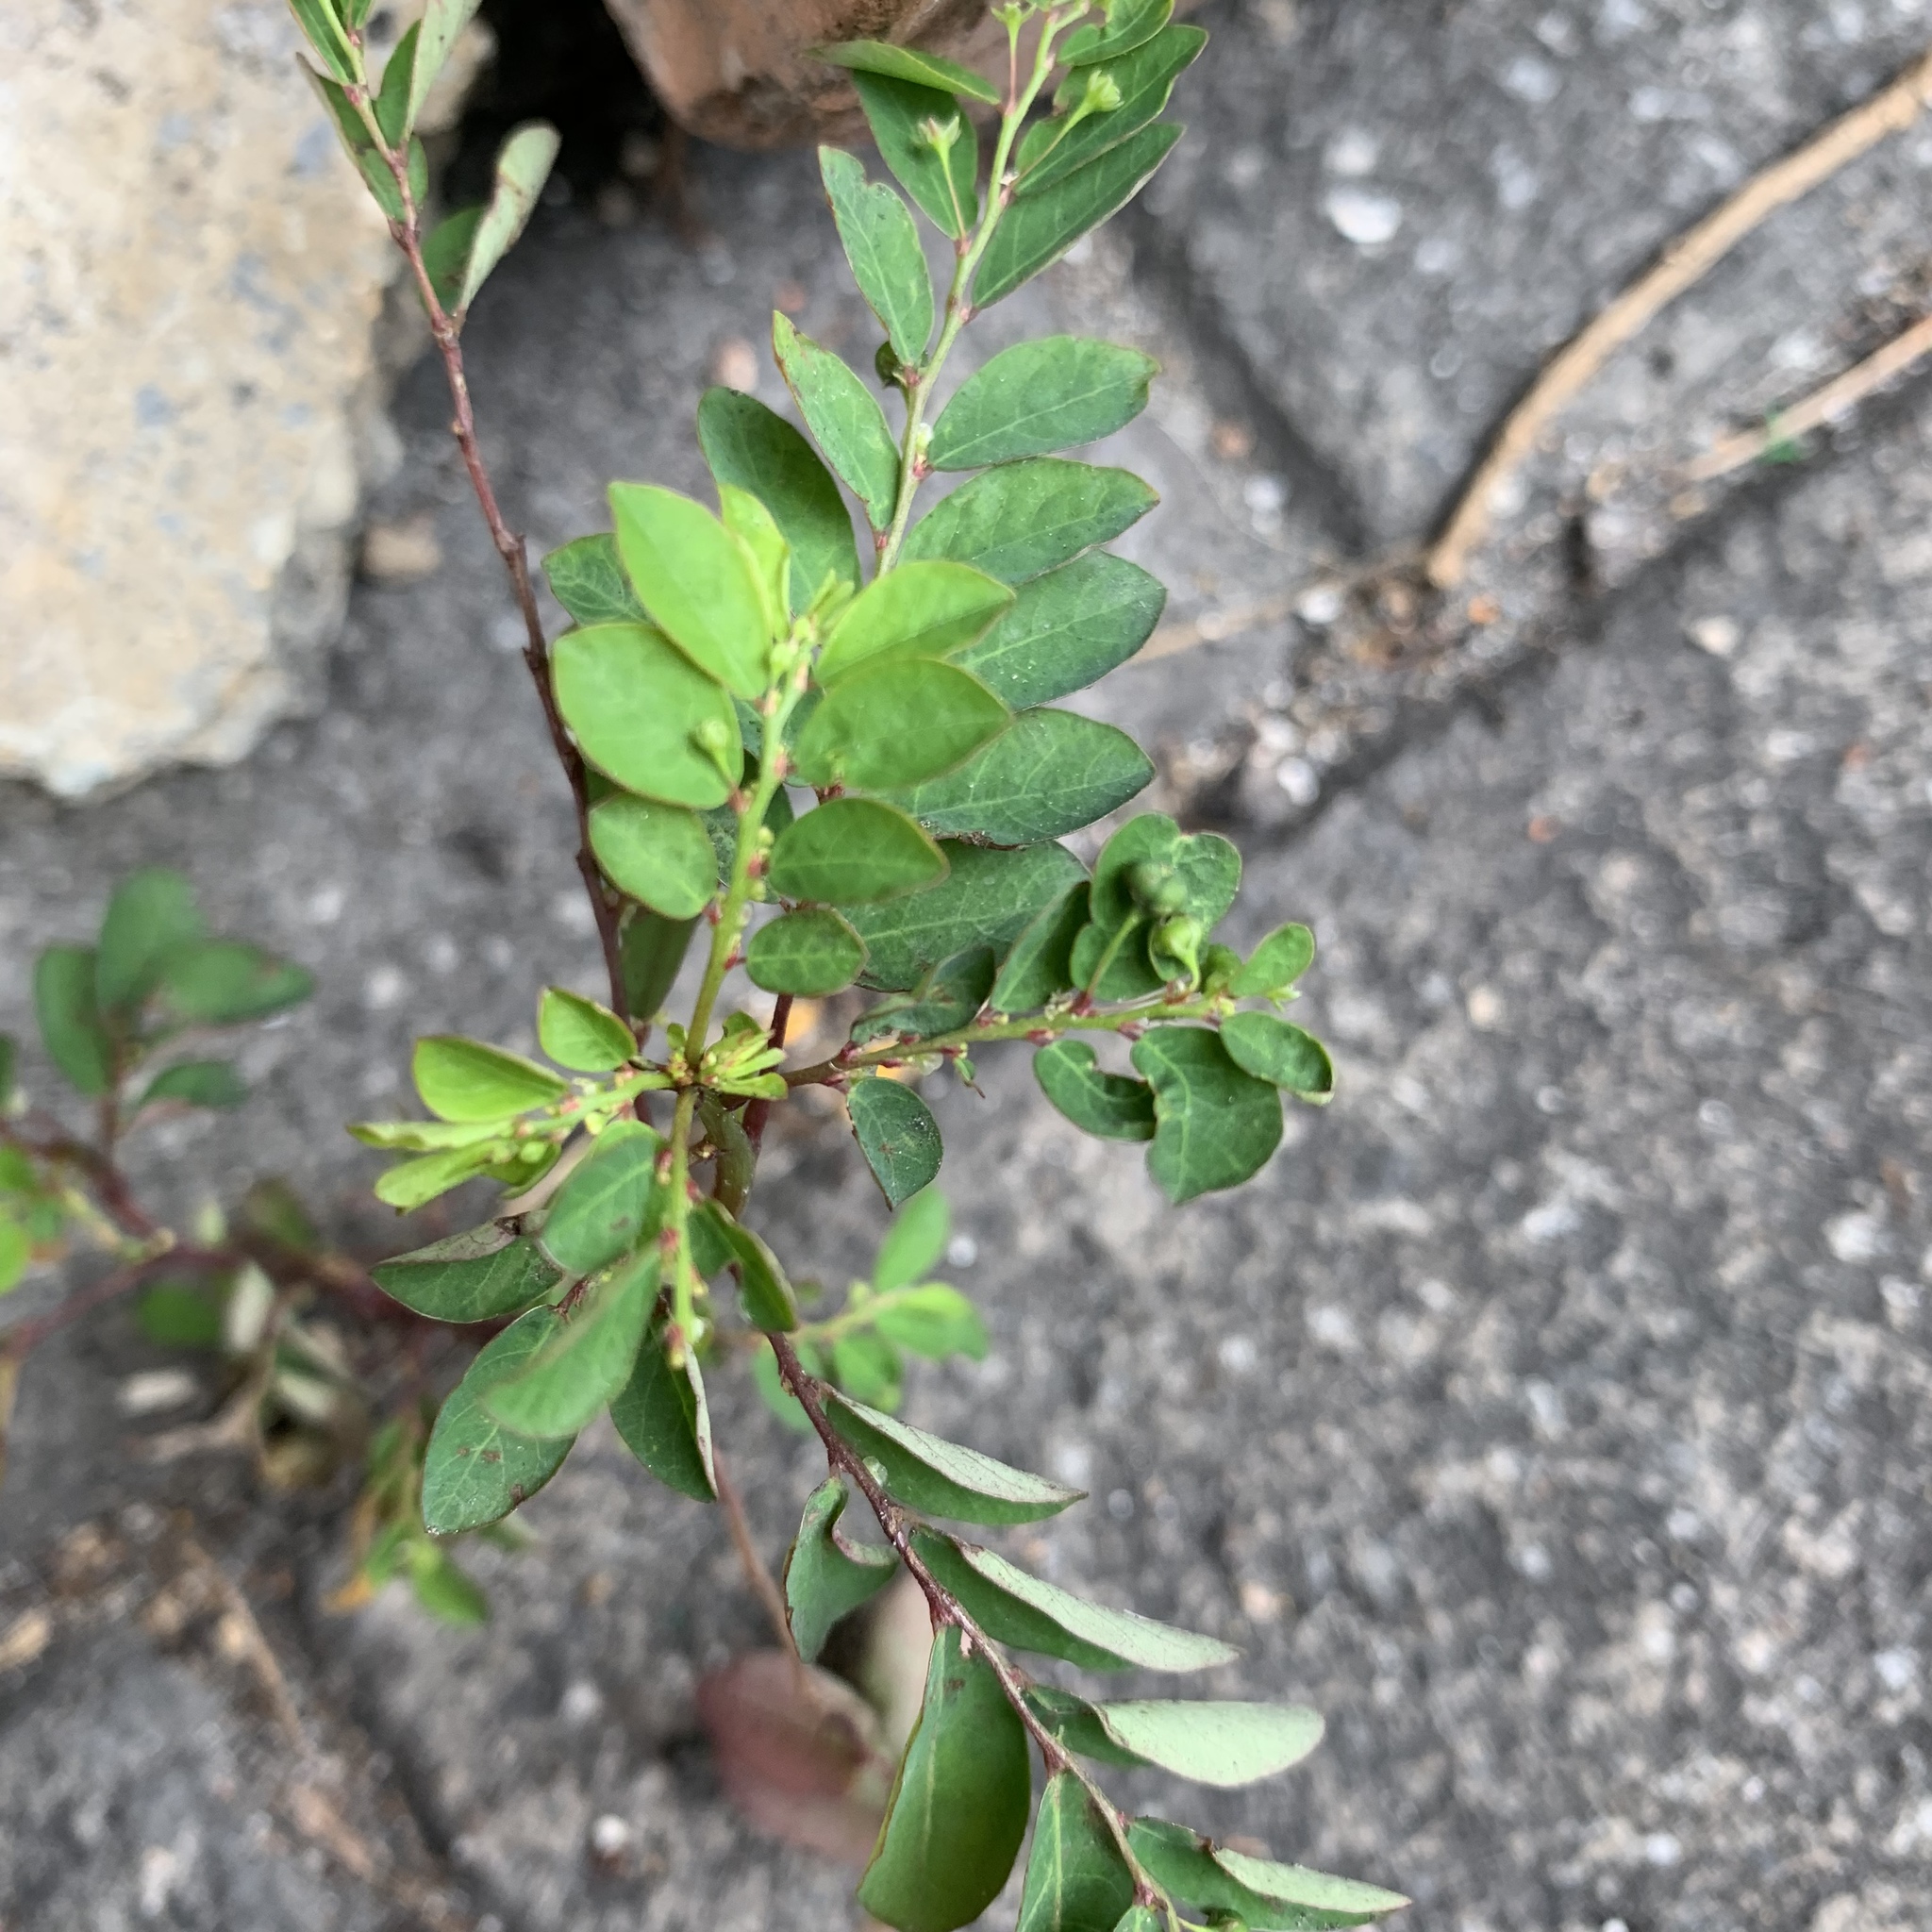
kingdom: Plantae
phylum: Tracheophyta
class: Magnoliopsida
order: Malpighiales
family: Phyllanthaceae
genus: Phyllanthus
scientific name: Phyllanthus tenellus
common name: Mascarene island leaf-flower
